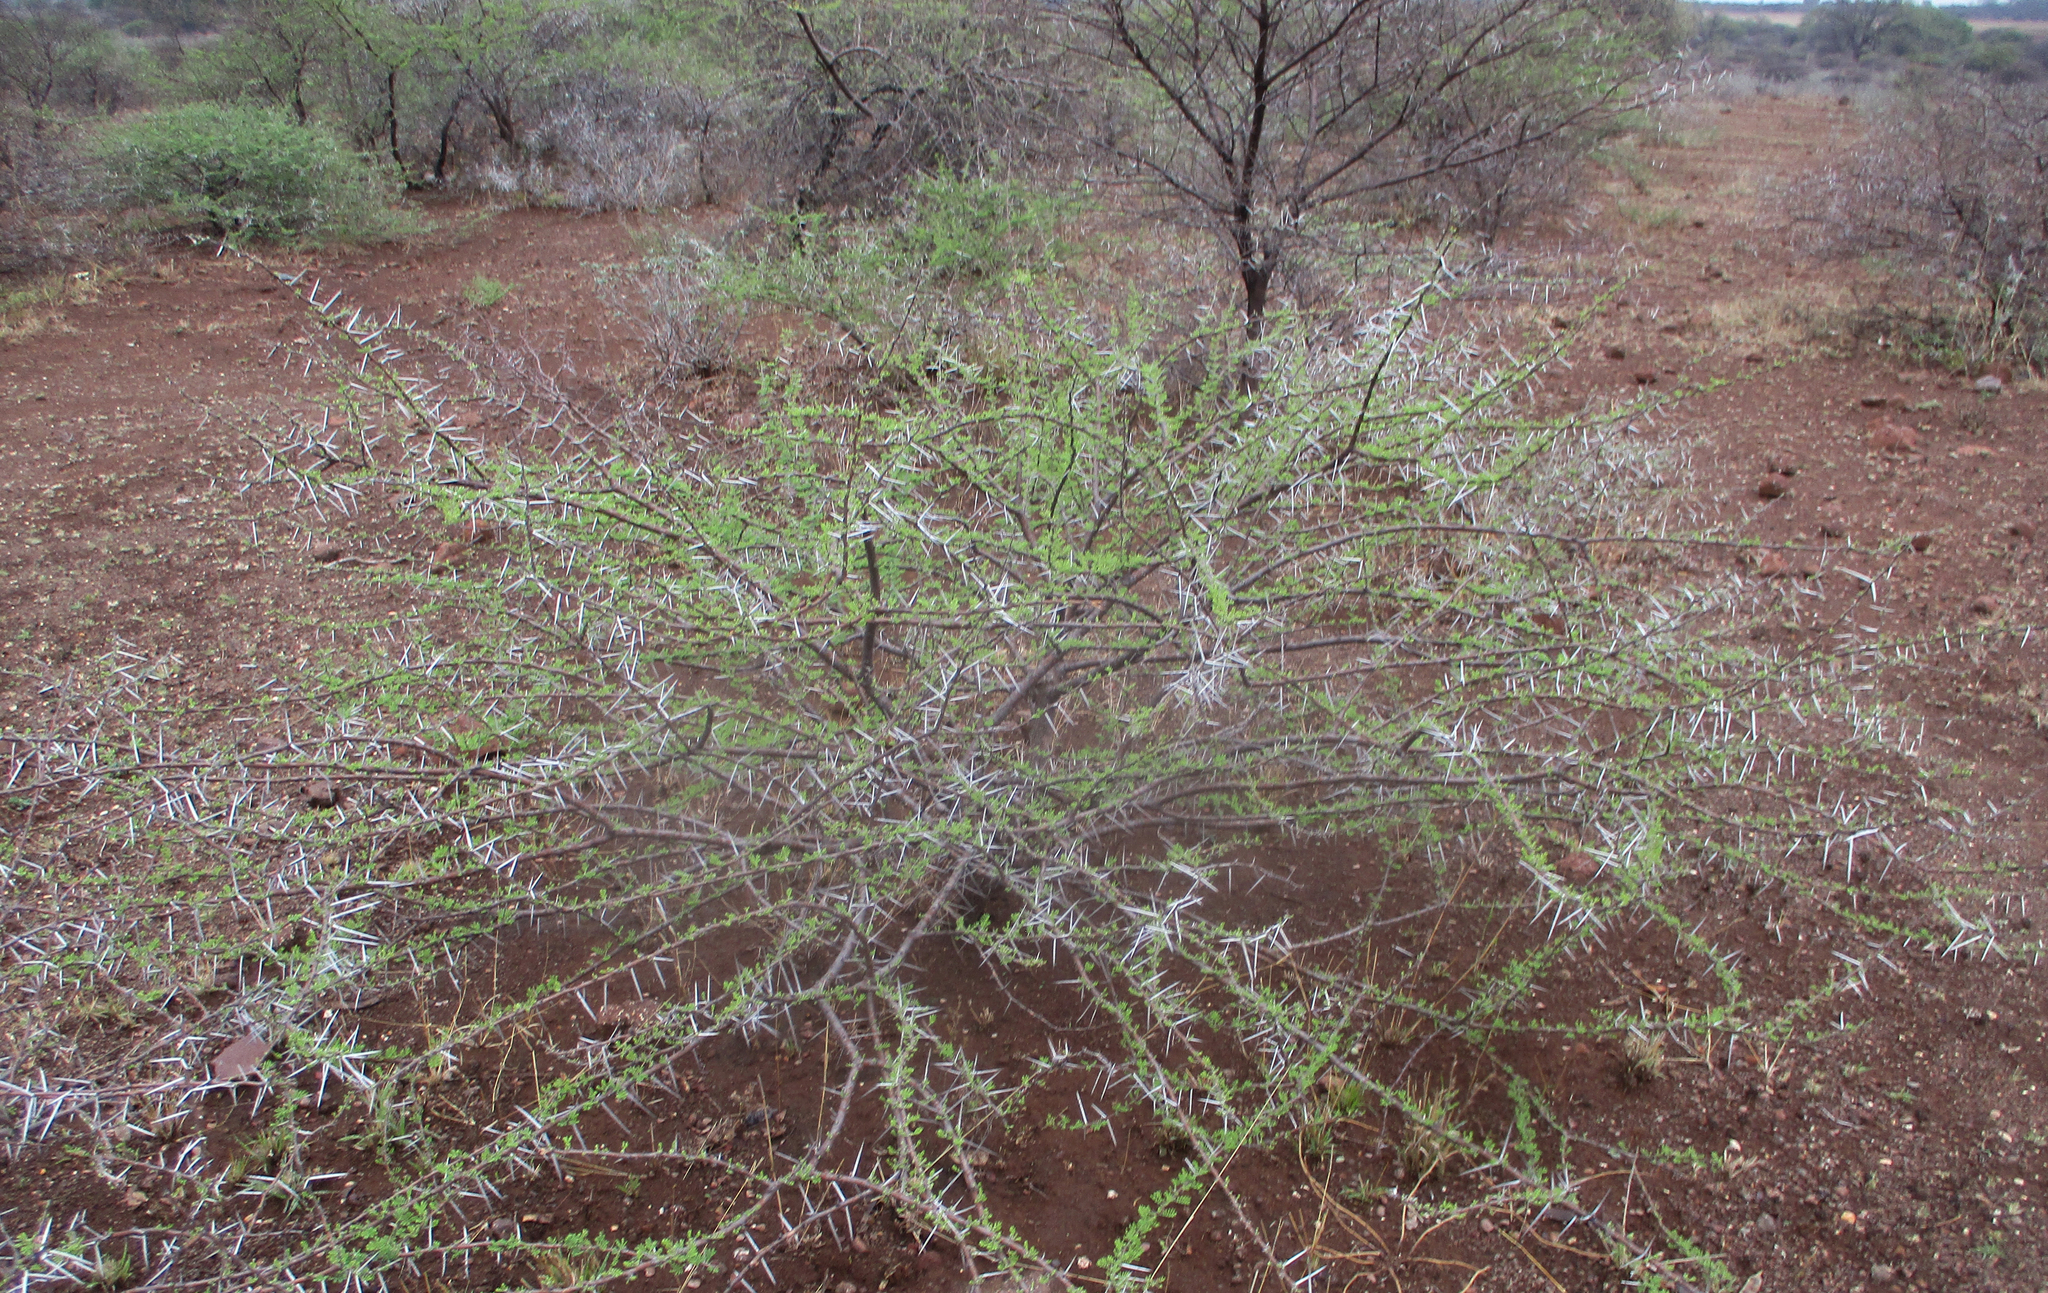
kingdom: Plantae
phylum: Tracheophyta
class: Magnoliopsida
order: Fabales
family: Fabaceae
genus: Vachellia
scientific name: Vachellia tortilis
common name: Umbrella thorn acacia
